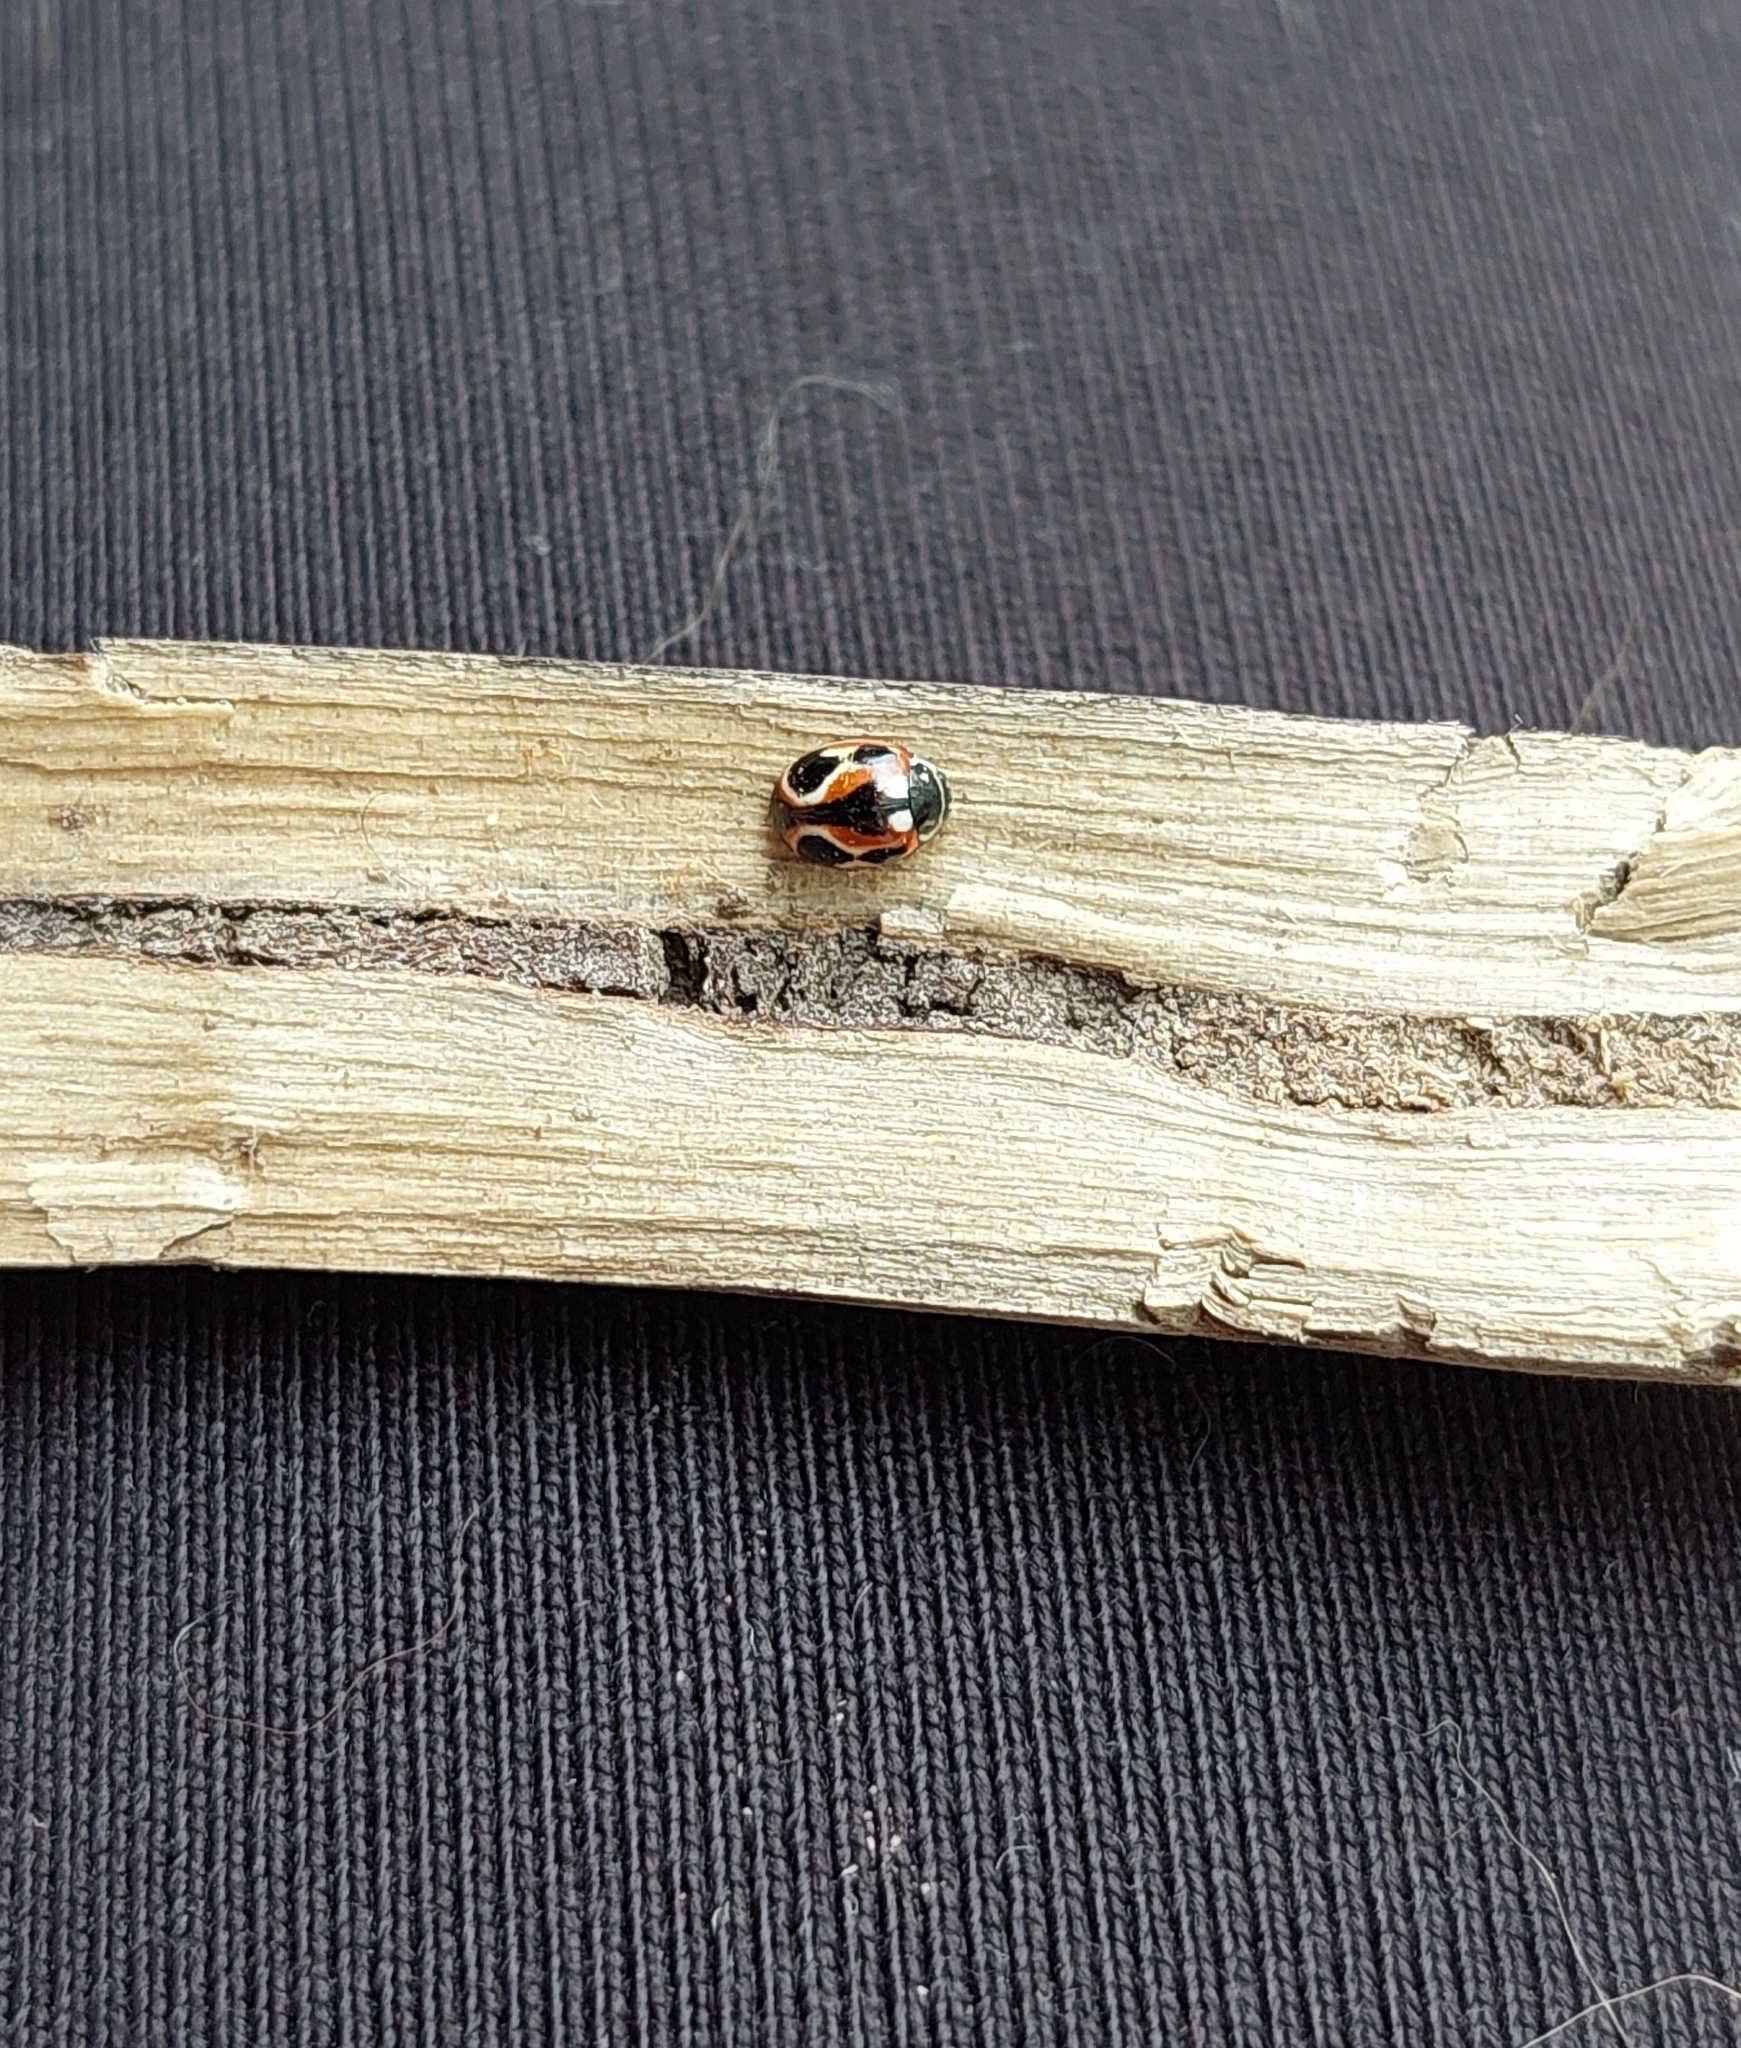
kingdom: Animalia
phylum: Arthropoda
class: Insecta
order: Coleoptera
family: Coccinellidae
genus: Cycloneda
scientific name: Cycloneda ancoralis
